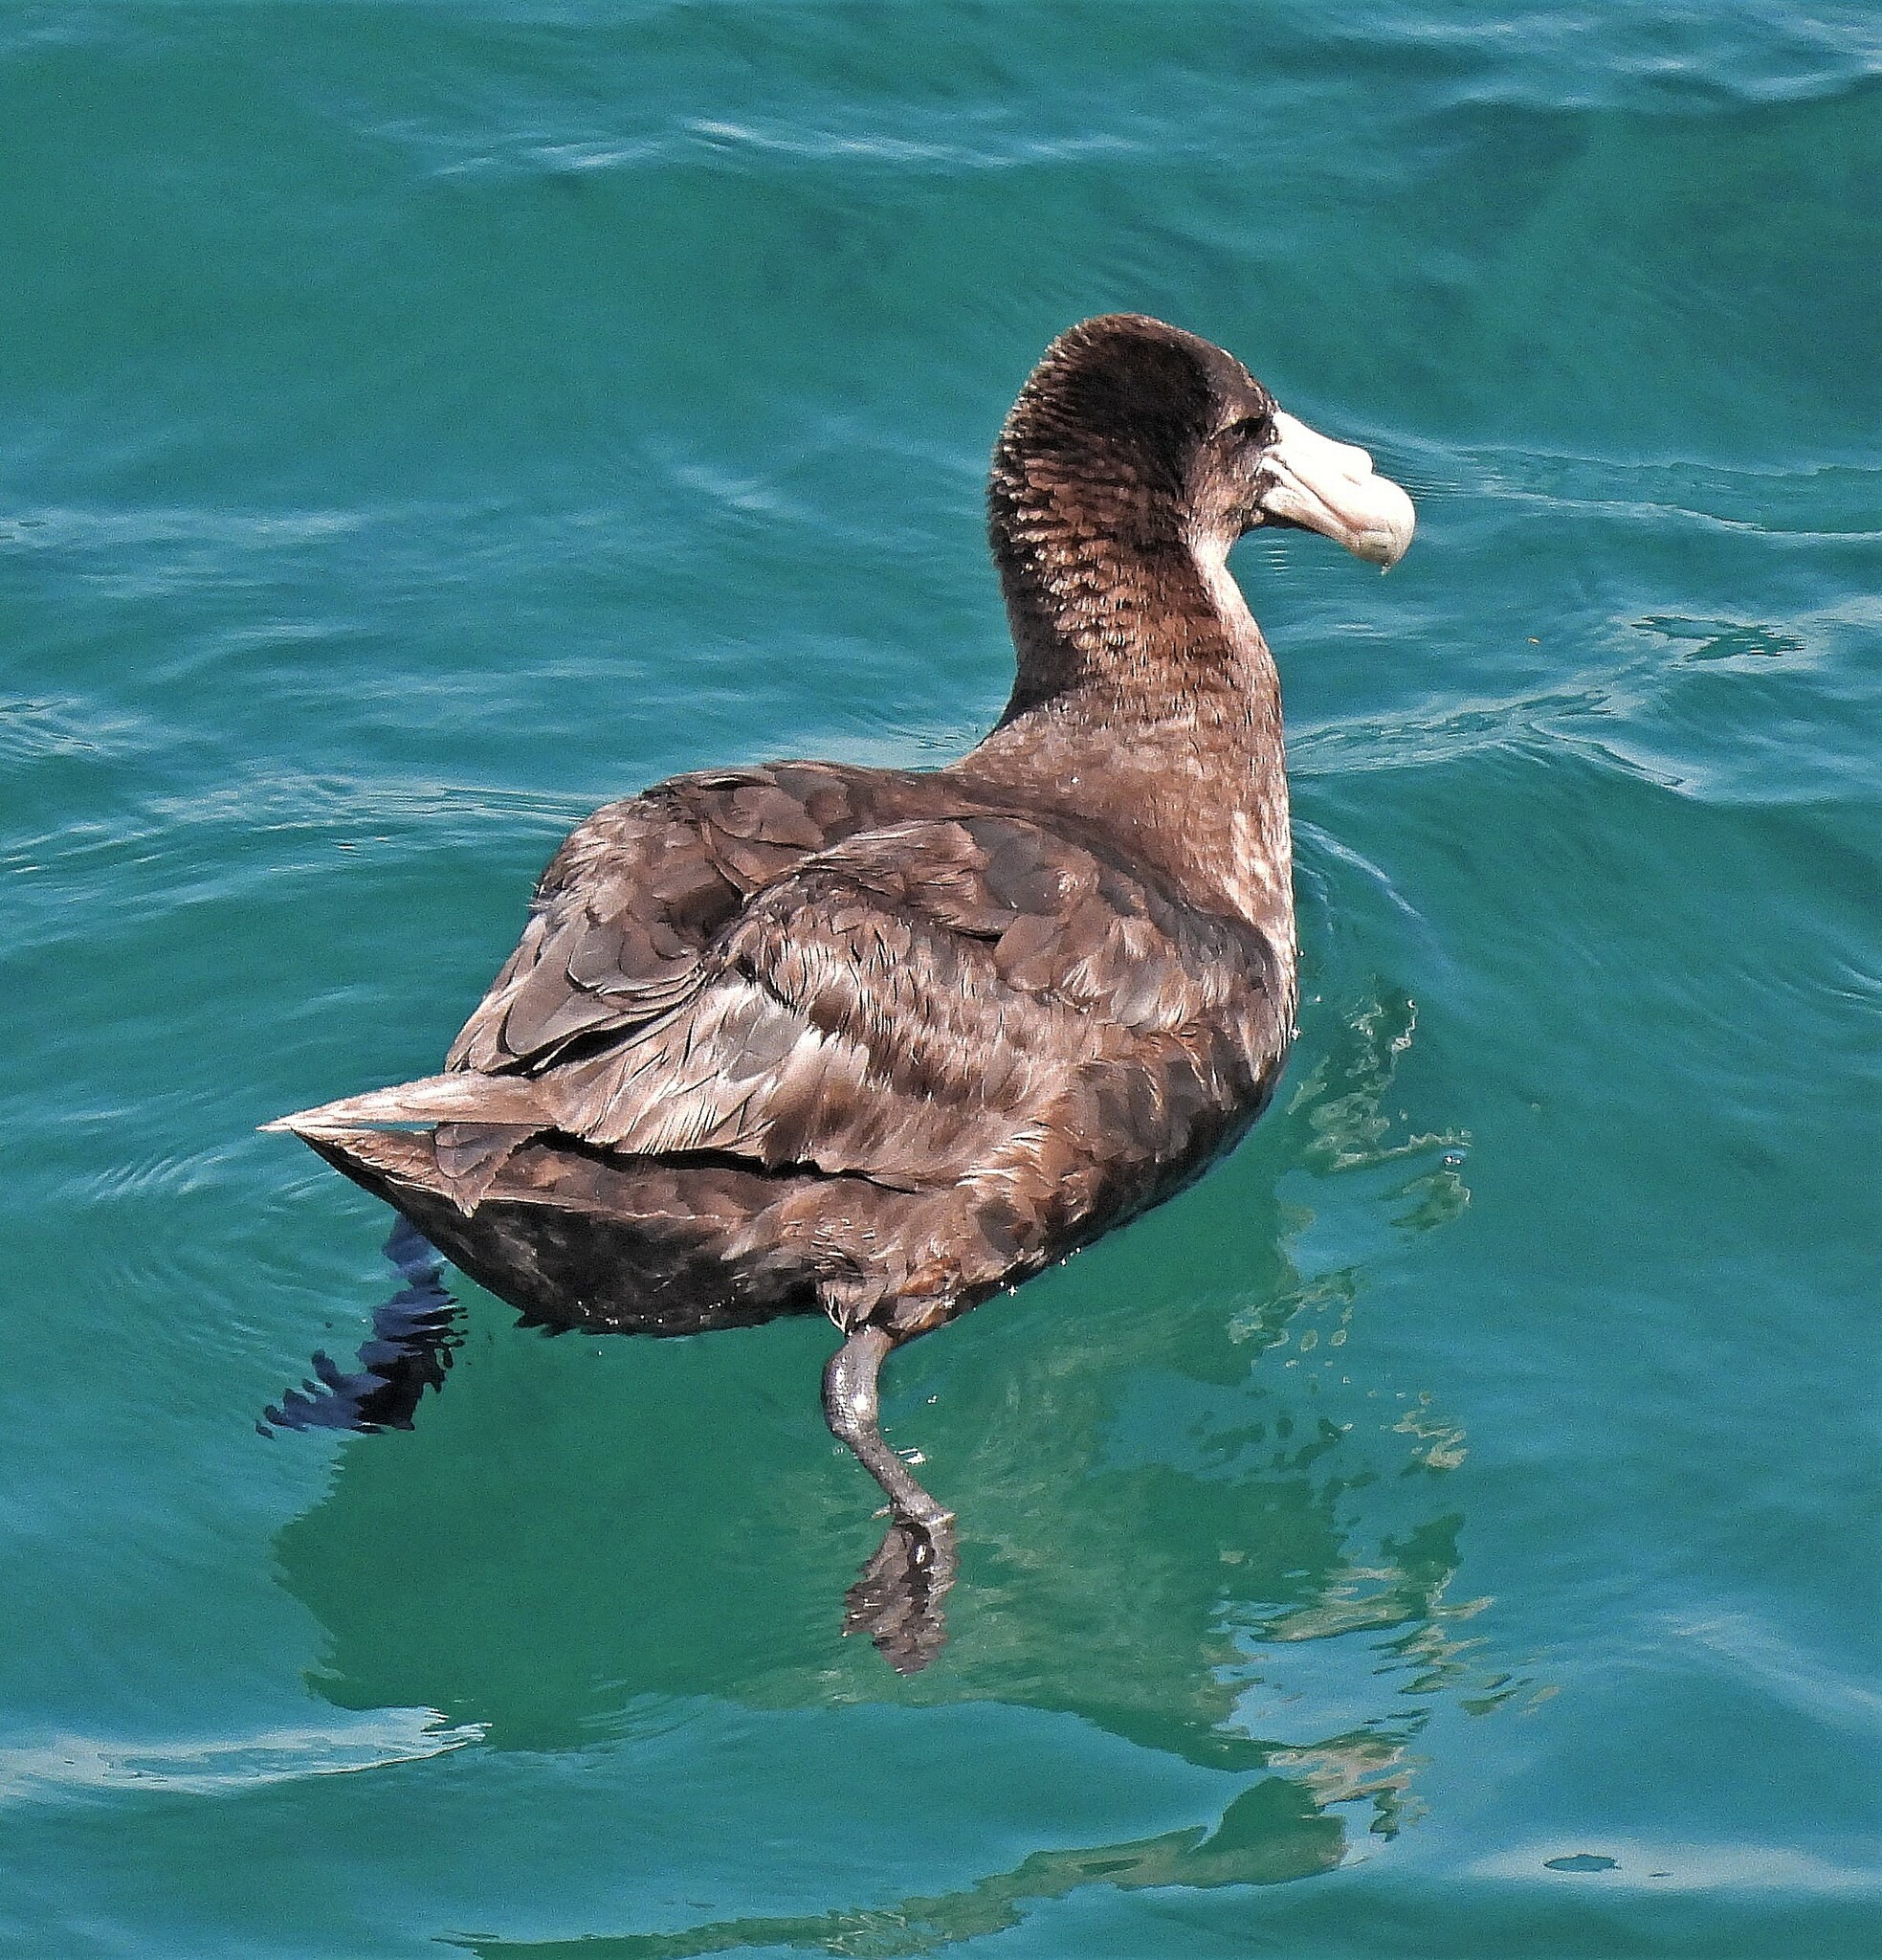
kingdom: Animalia
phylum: Chordata
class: Aves
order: Procellariiformes
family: Procellariidae
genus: Macronectes
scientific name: Macronectes giganteus
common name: Southern giant petrel
